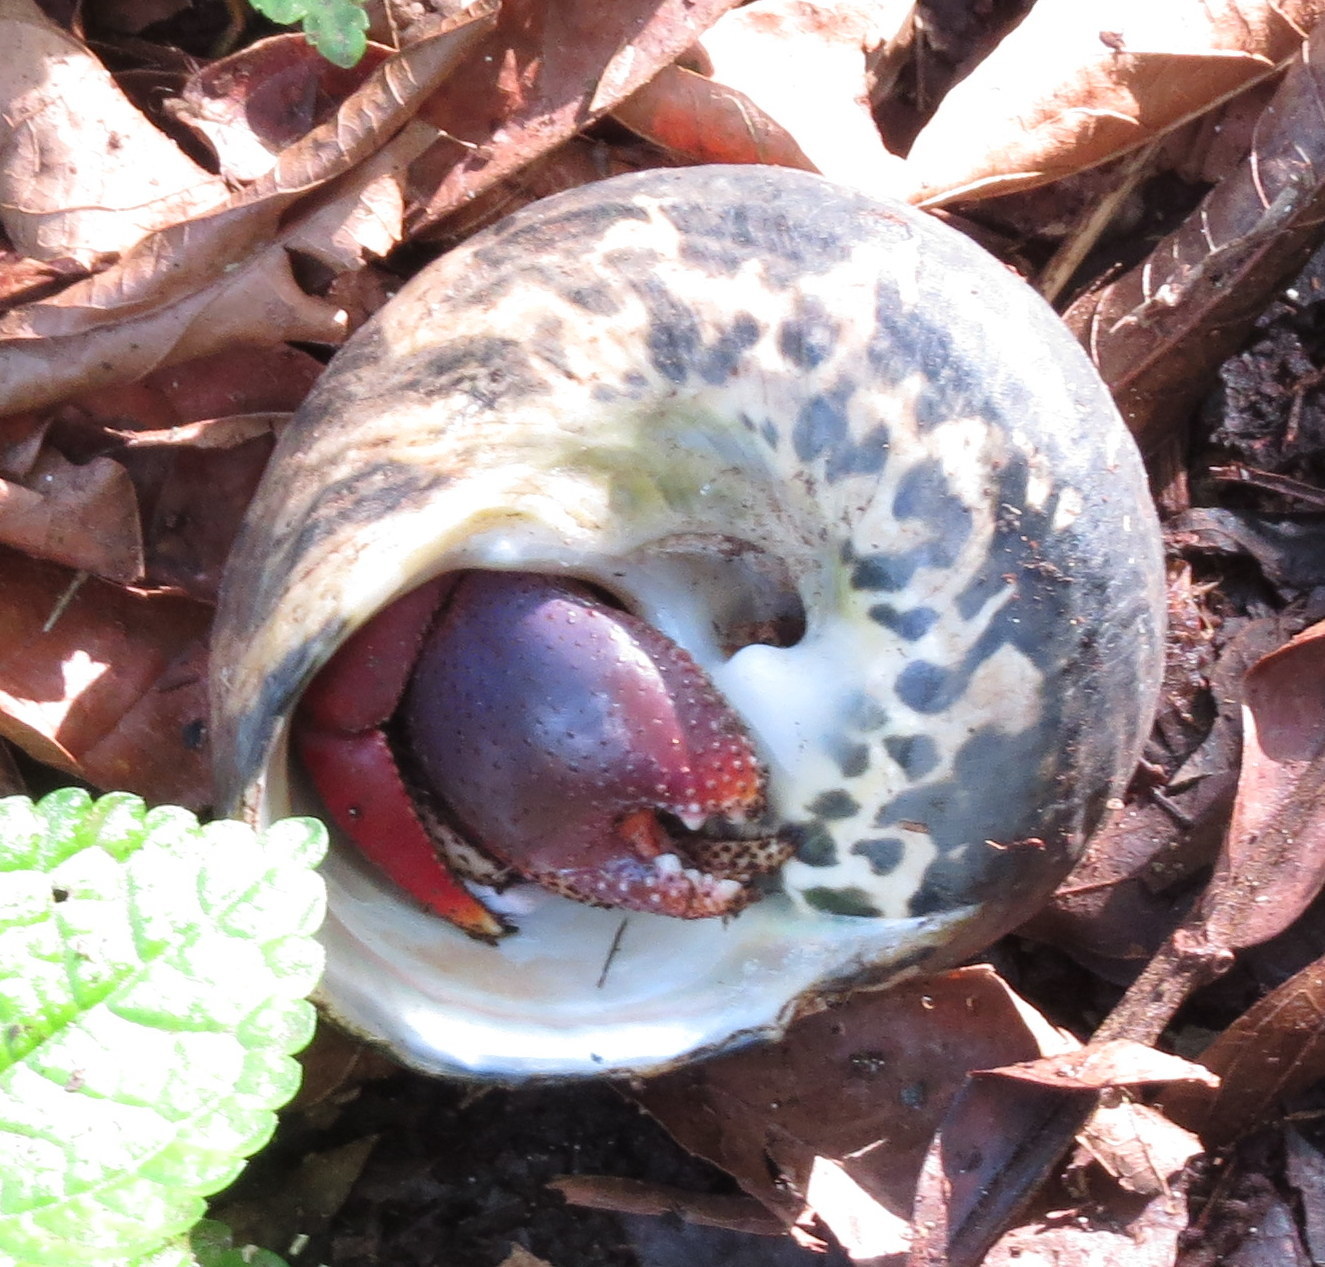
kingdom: Animalia
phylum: Arthropoda
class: Malacostraca
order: Decapoda
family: Coenobitidae
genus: Coenobita
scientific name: Coenobita clypeatus
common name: Caribbean hermit crab
